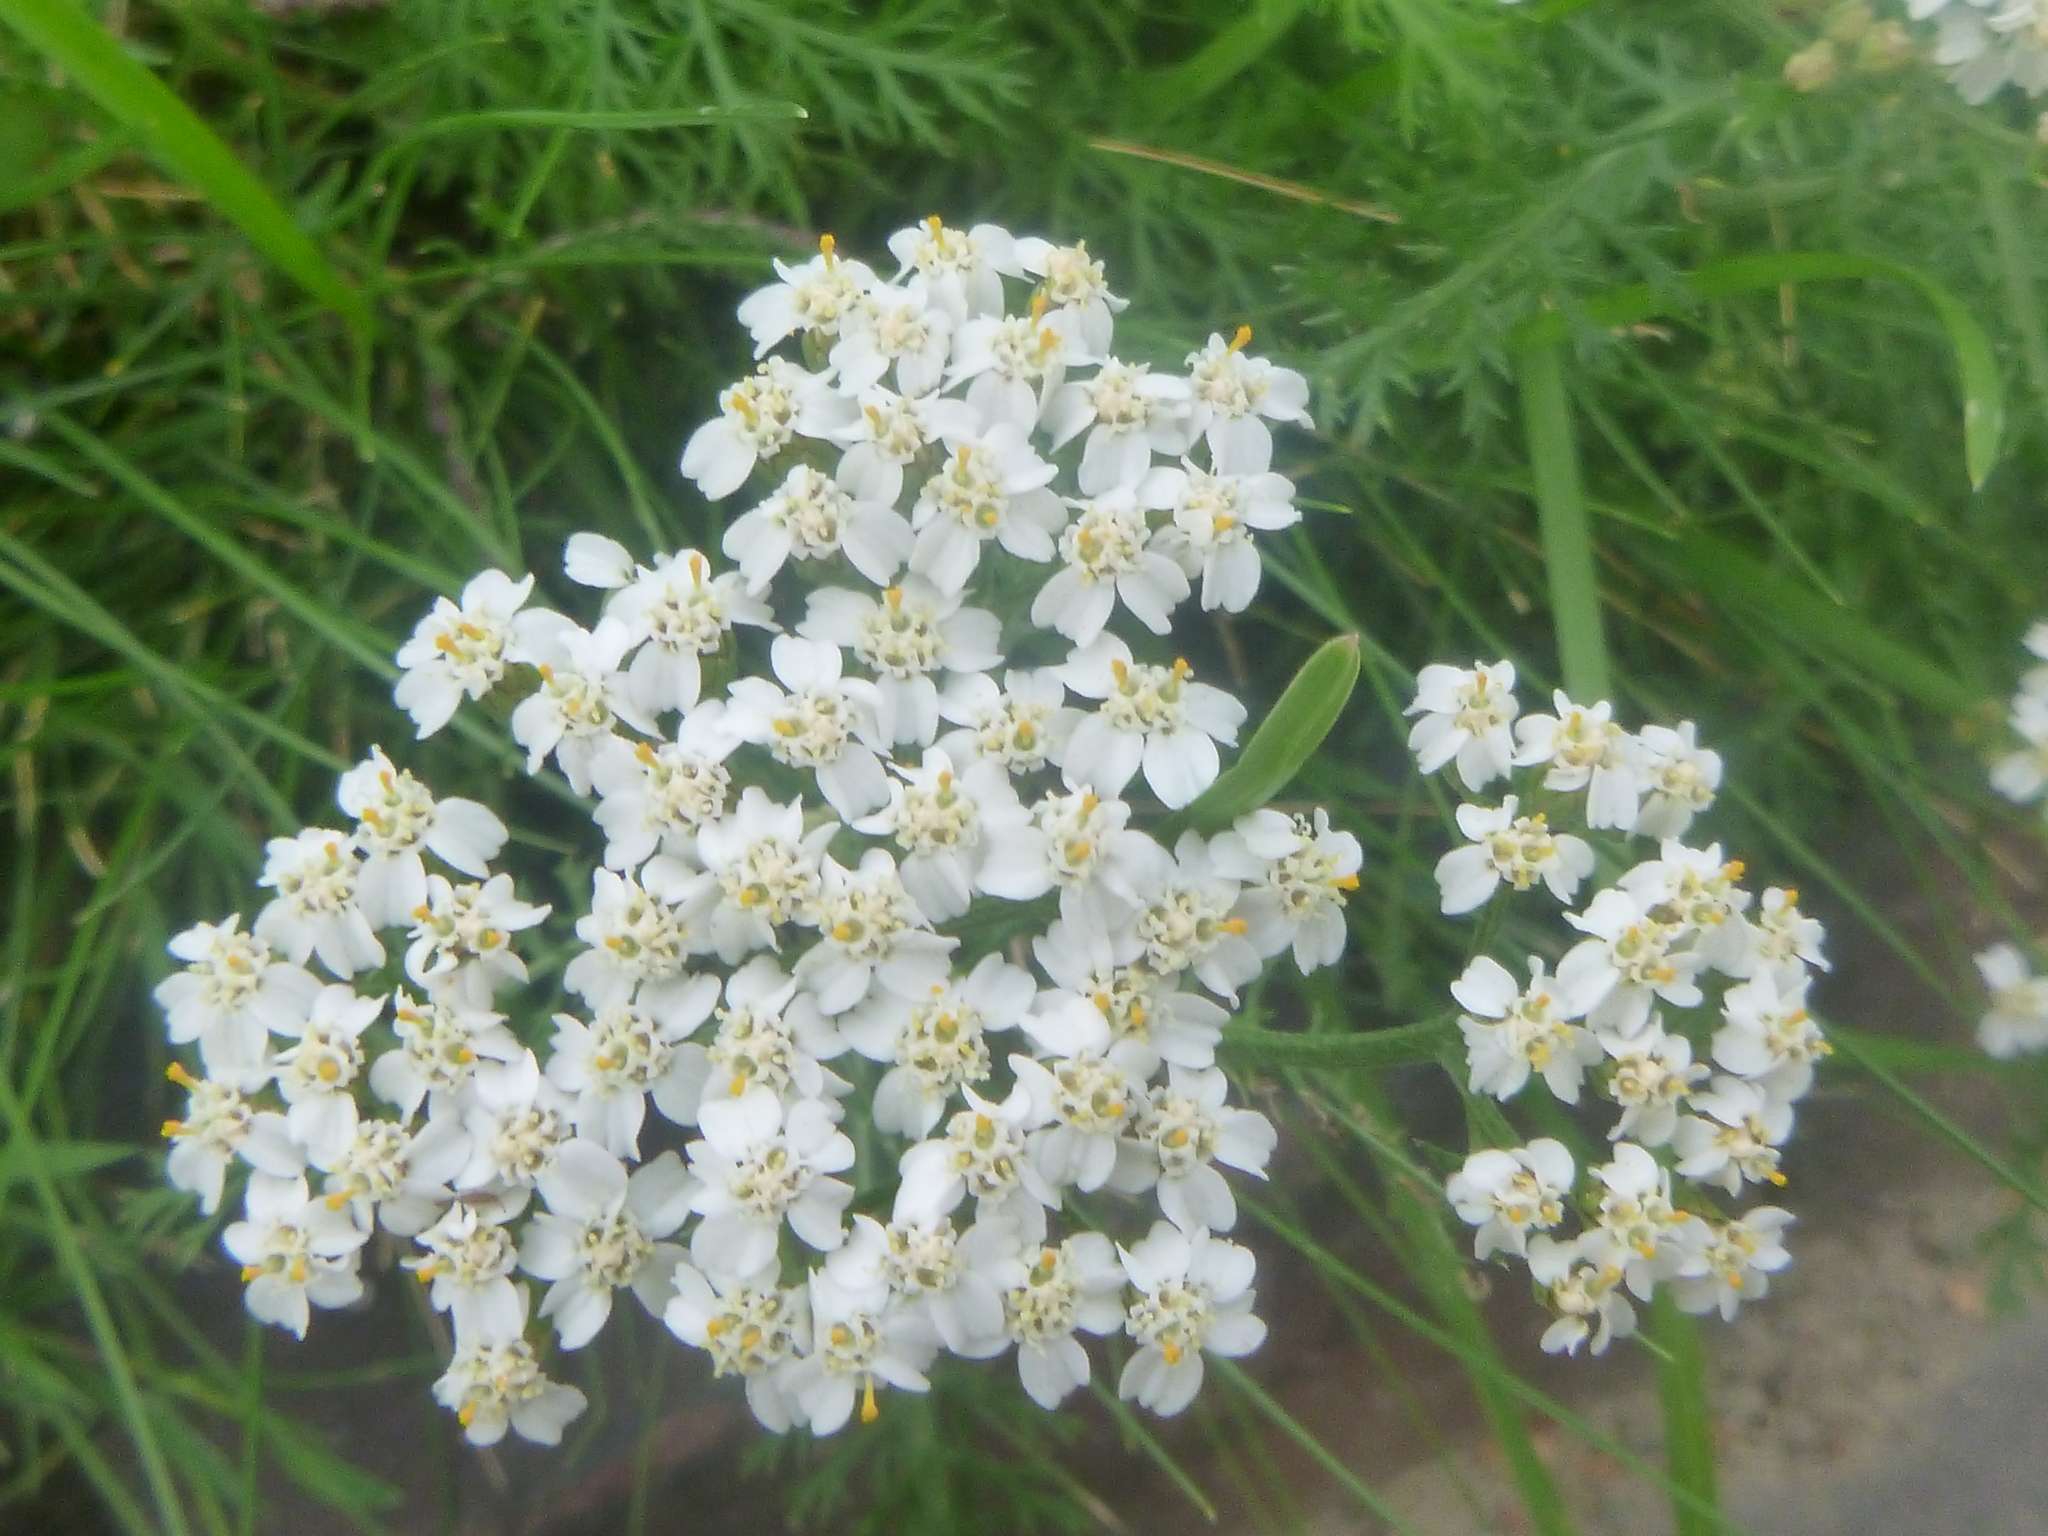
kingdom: Plantae
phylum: Tracheophyta
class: Magnoliopsida
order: Asterales
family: Asteraceae
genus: Achillea
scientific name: Achillea millefolium
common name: Yarrow
